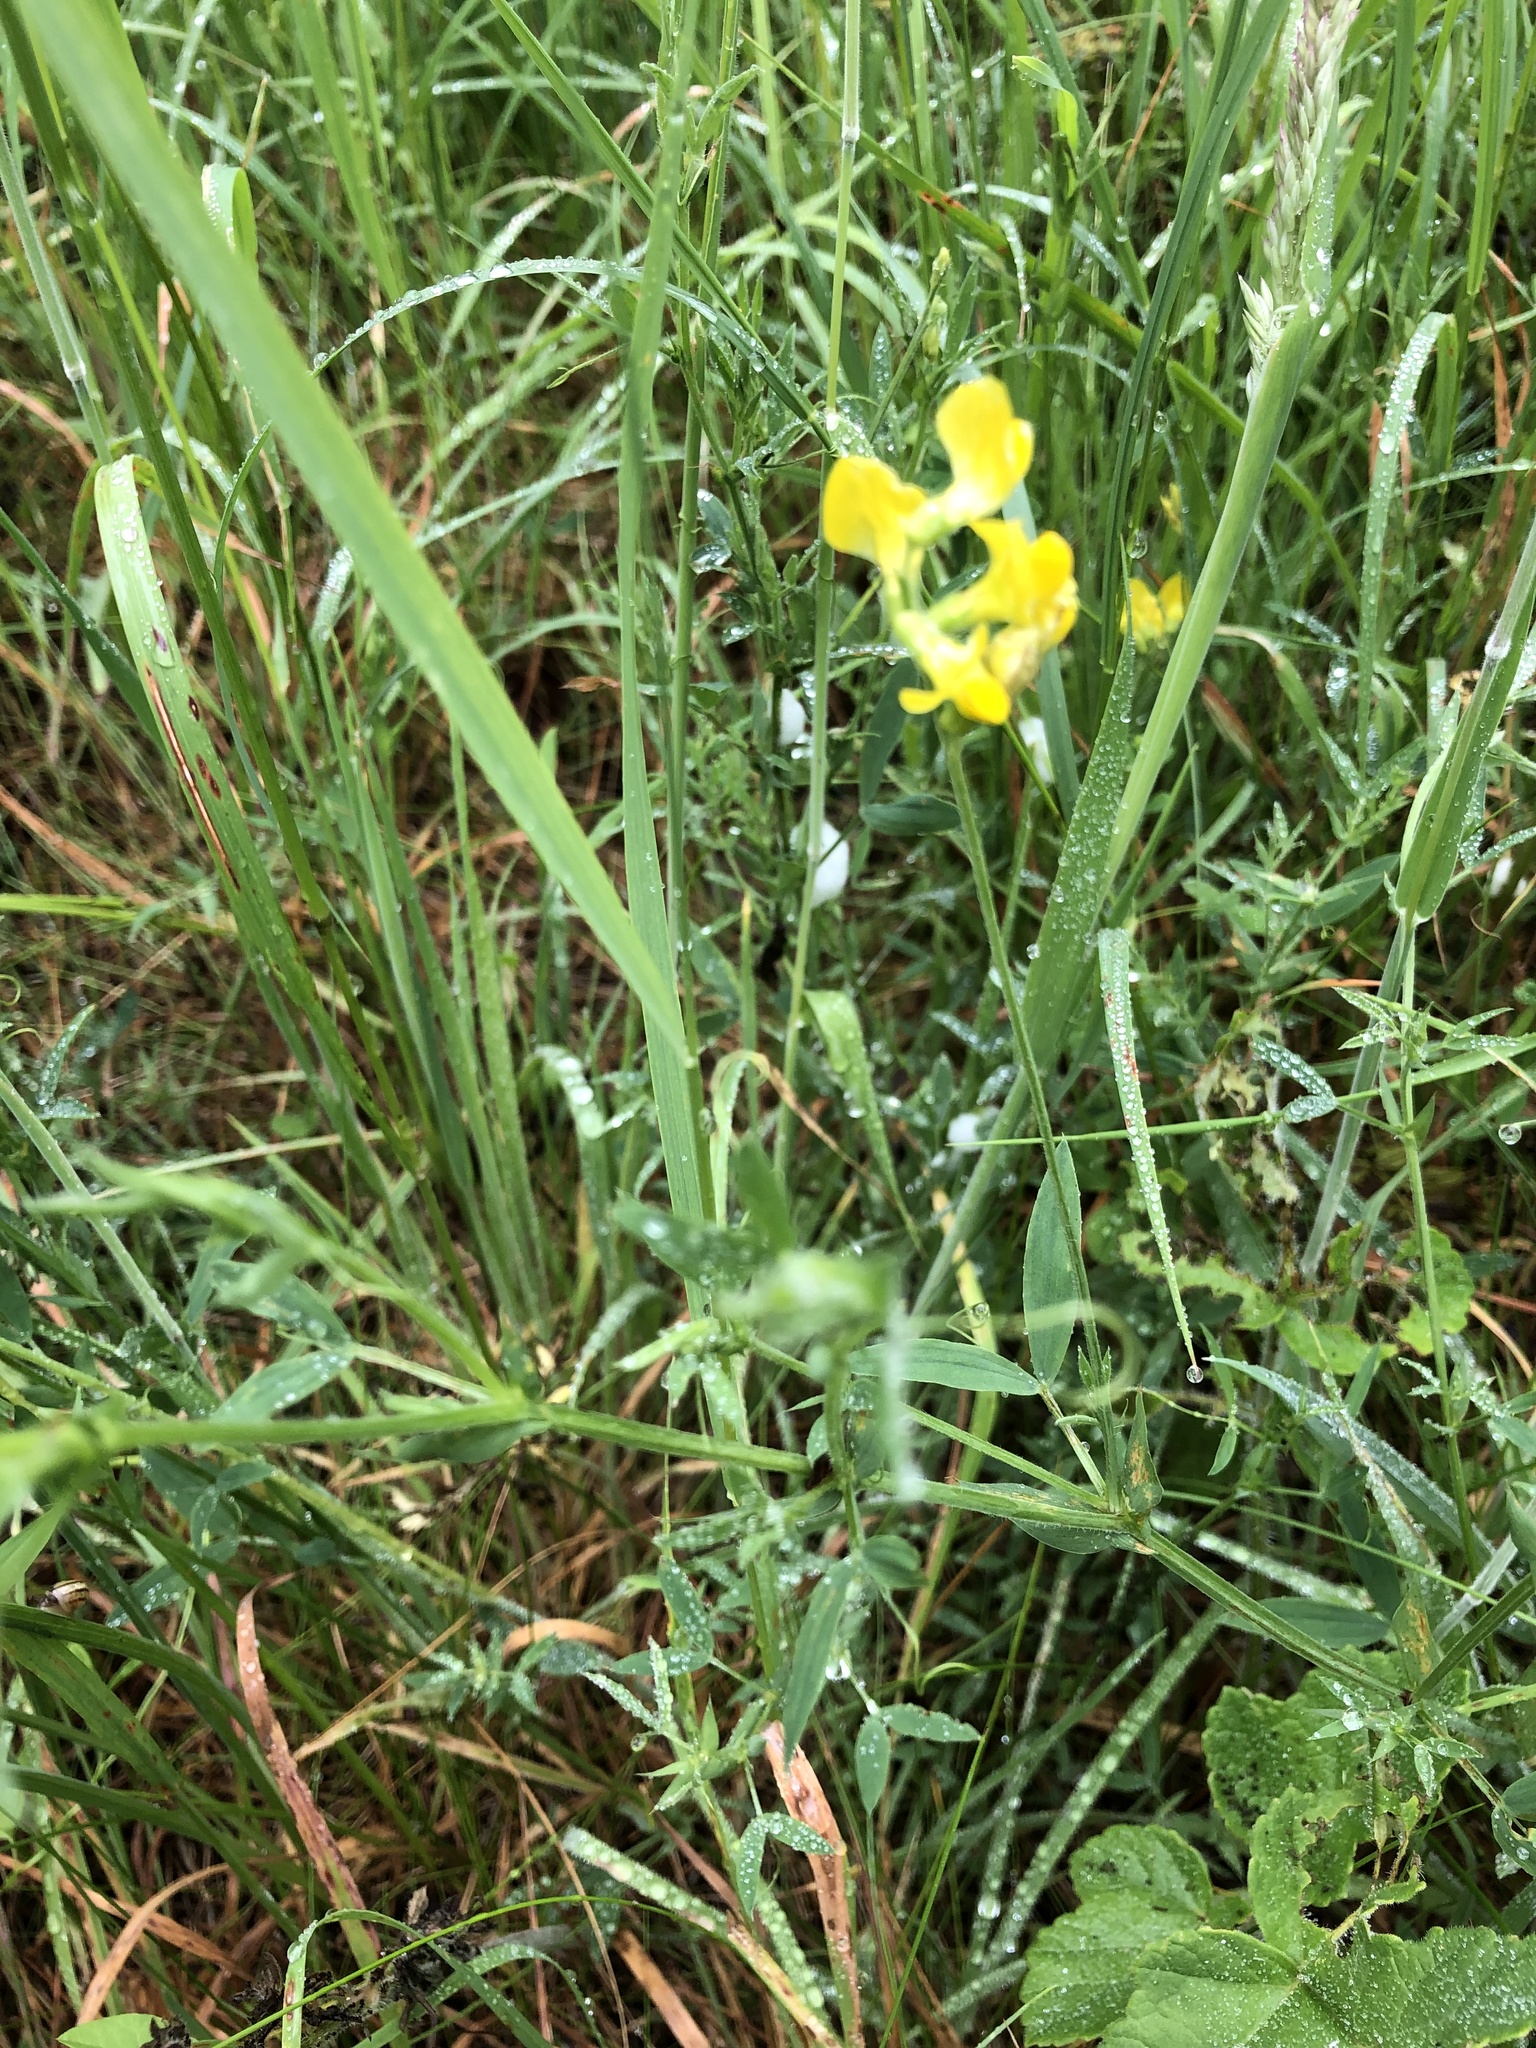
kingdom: Plantae
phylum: Tracheophyta
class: Magnoliopsida
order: Fabales
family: Fabaceae
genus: Lathyrus
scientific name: Lathyrus pratensis
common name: Meadow vetchling
